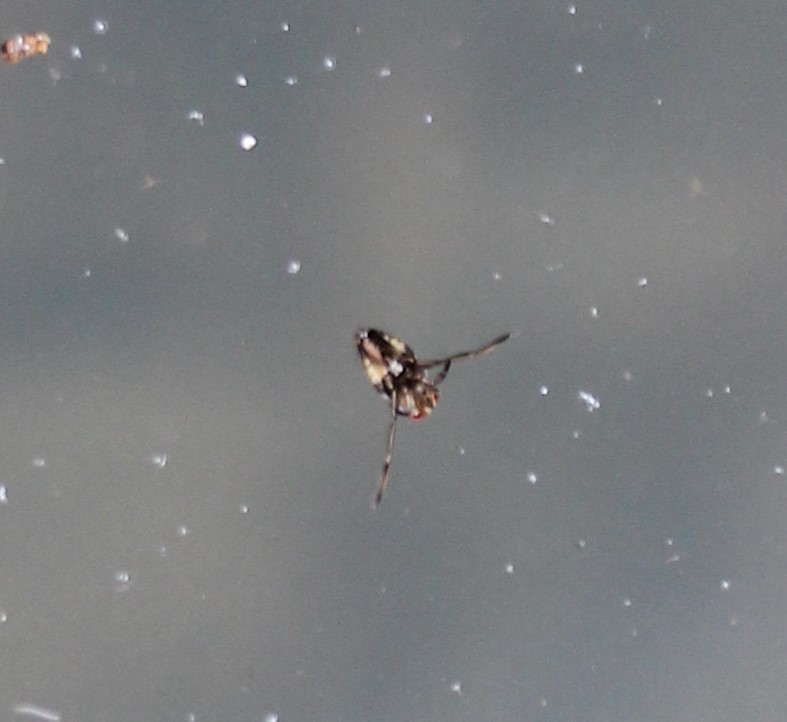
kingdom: Animalia
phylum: Arthropoda
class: Insecta
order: Hemiptera
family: Notonectidae
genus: Notonecta
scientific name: Notonecta
